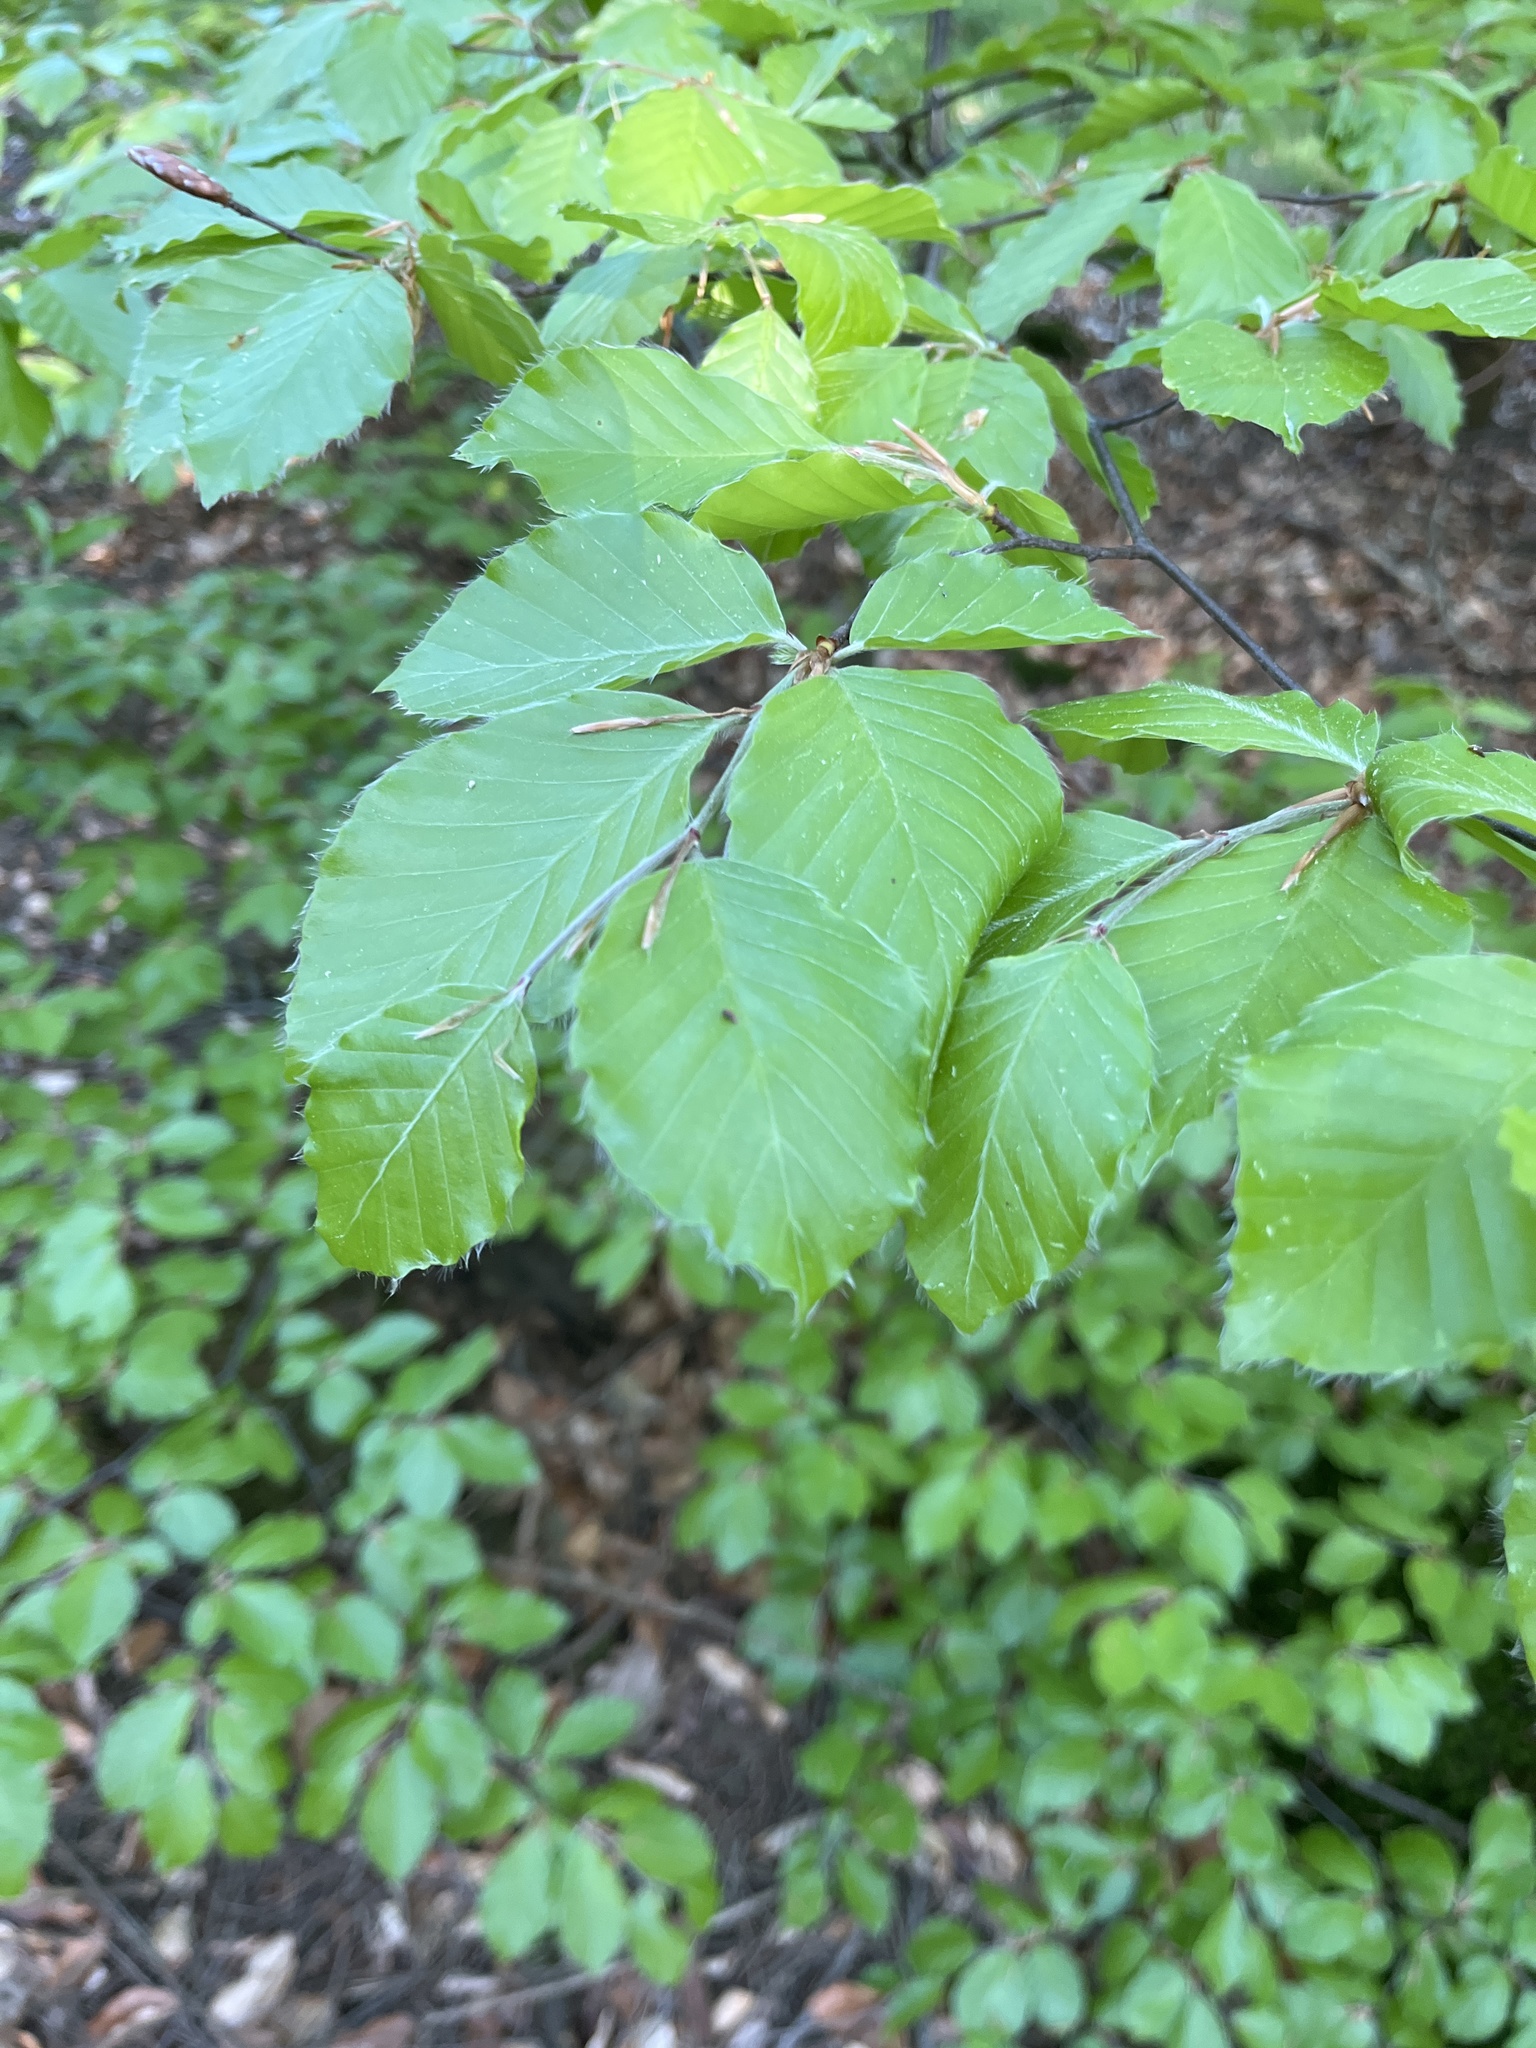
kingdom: Plantae
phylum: Tracheophyta
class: Magnoliopsida
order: Fagales
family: Fagaceae
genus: Fagus
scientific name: Fagus sylvatica
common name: Beech
